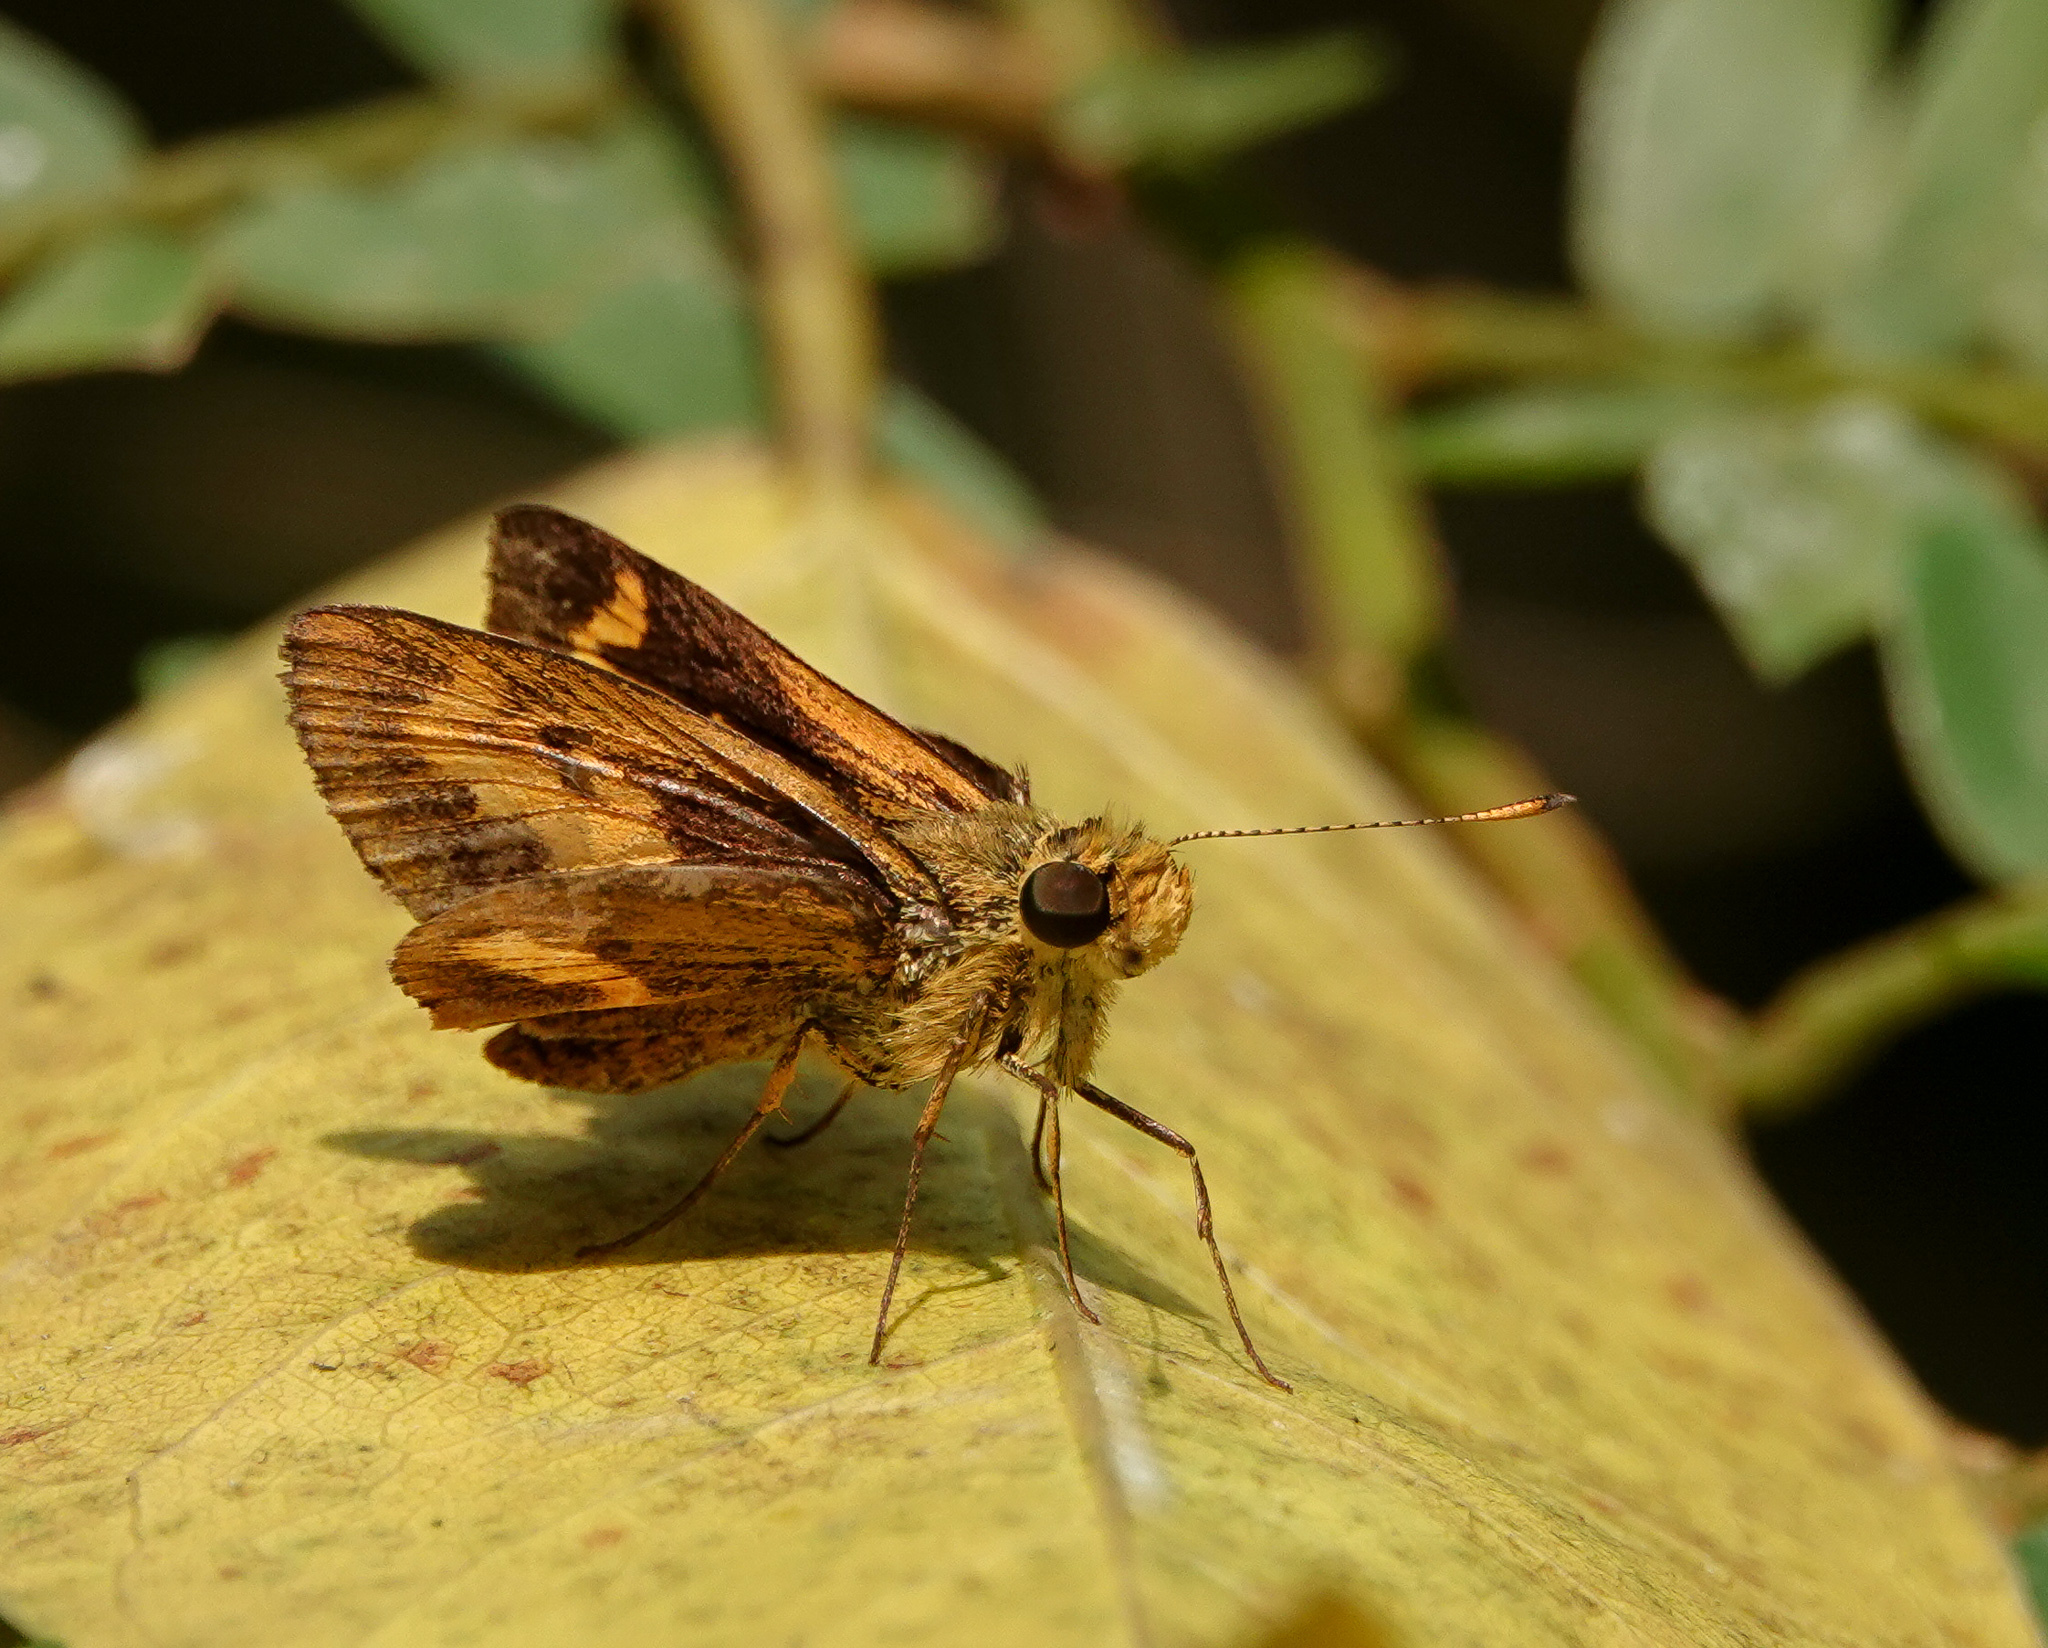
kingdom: Animalia
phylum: Arthropoda
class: Insecta
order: Lepidoptera
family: Hesperiidae
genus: Oriens
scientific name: Oriens gola
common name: Common dartlet
